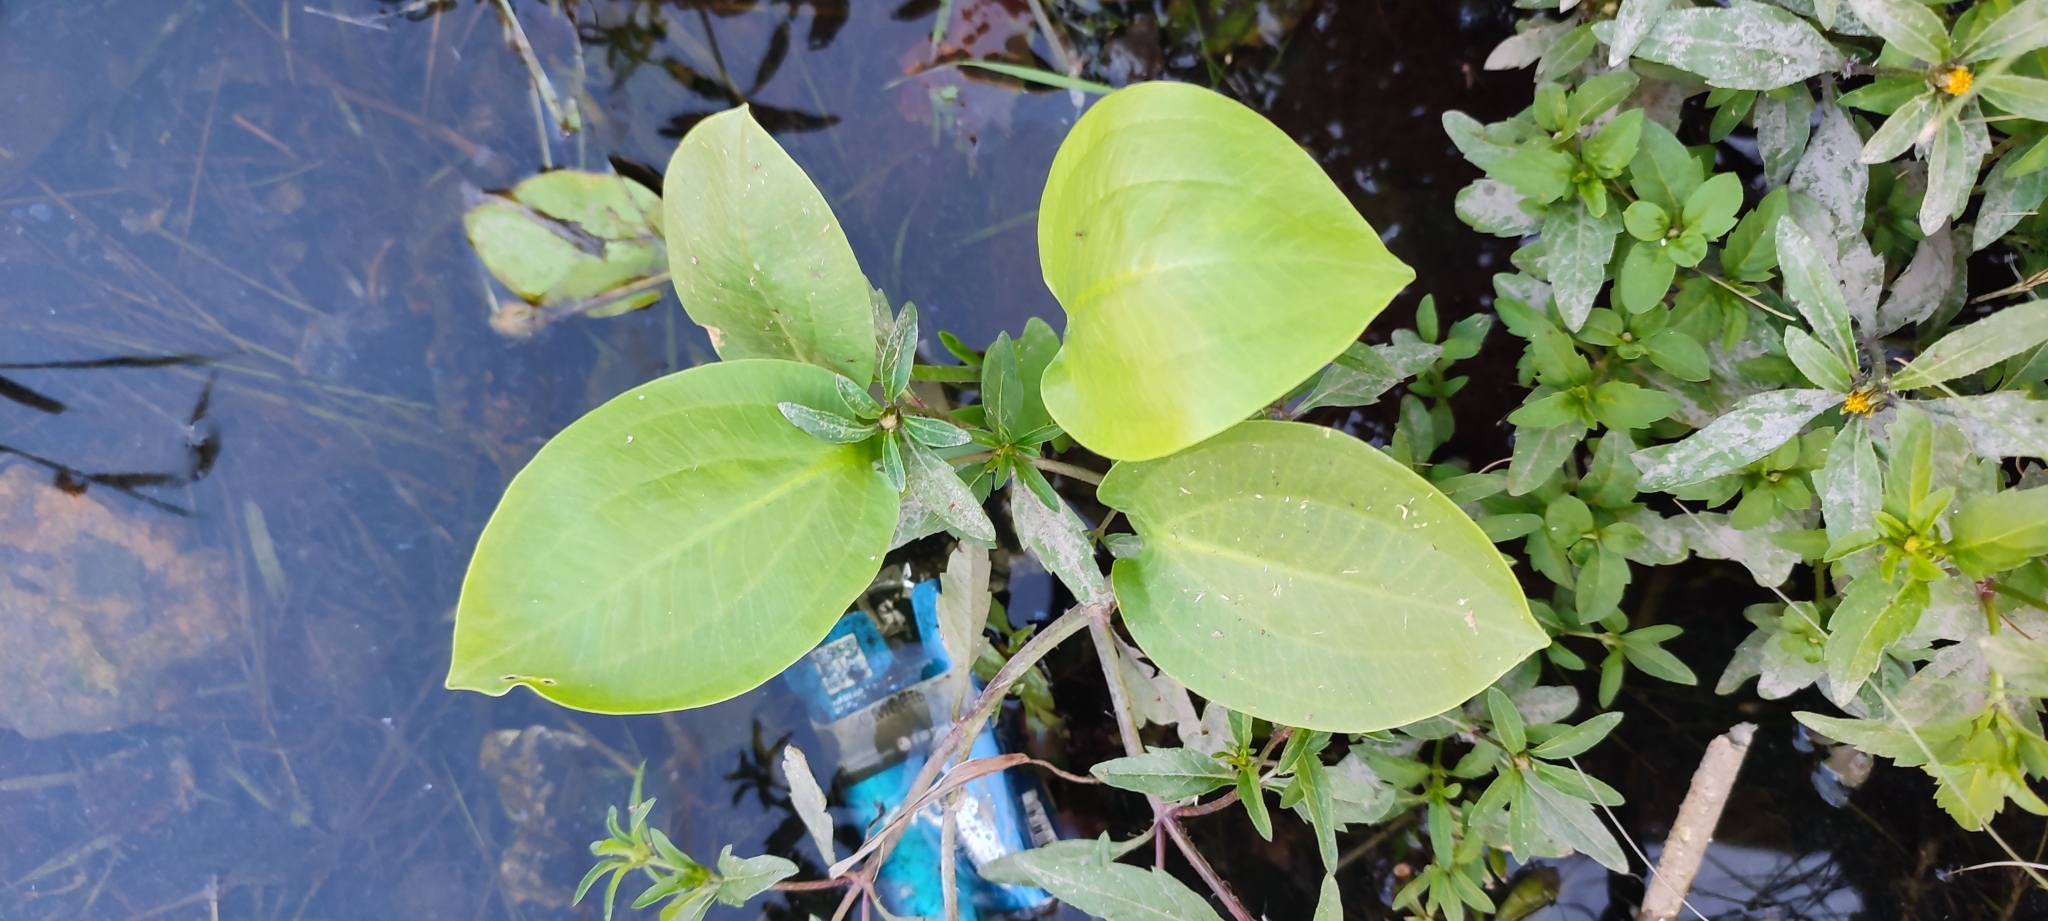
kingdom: Plantae
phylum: Tracheophyta
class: Liliopsida
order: Alismatales
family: Alismataceae
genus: Alisma
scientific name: Alisma plantago-aquatica
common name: Water-plantain
